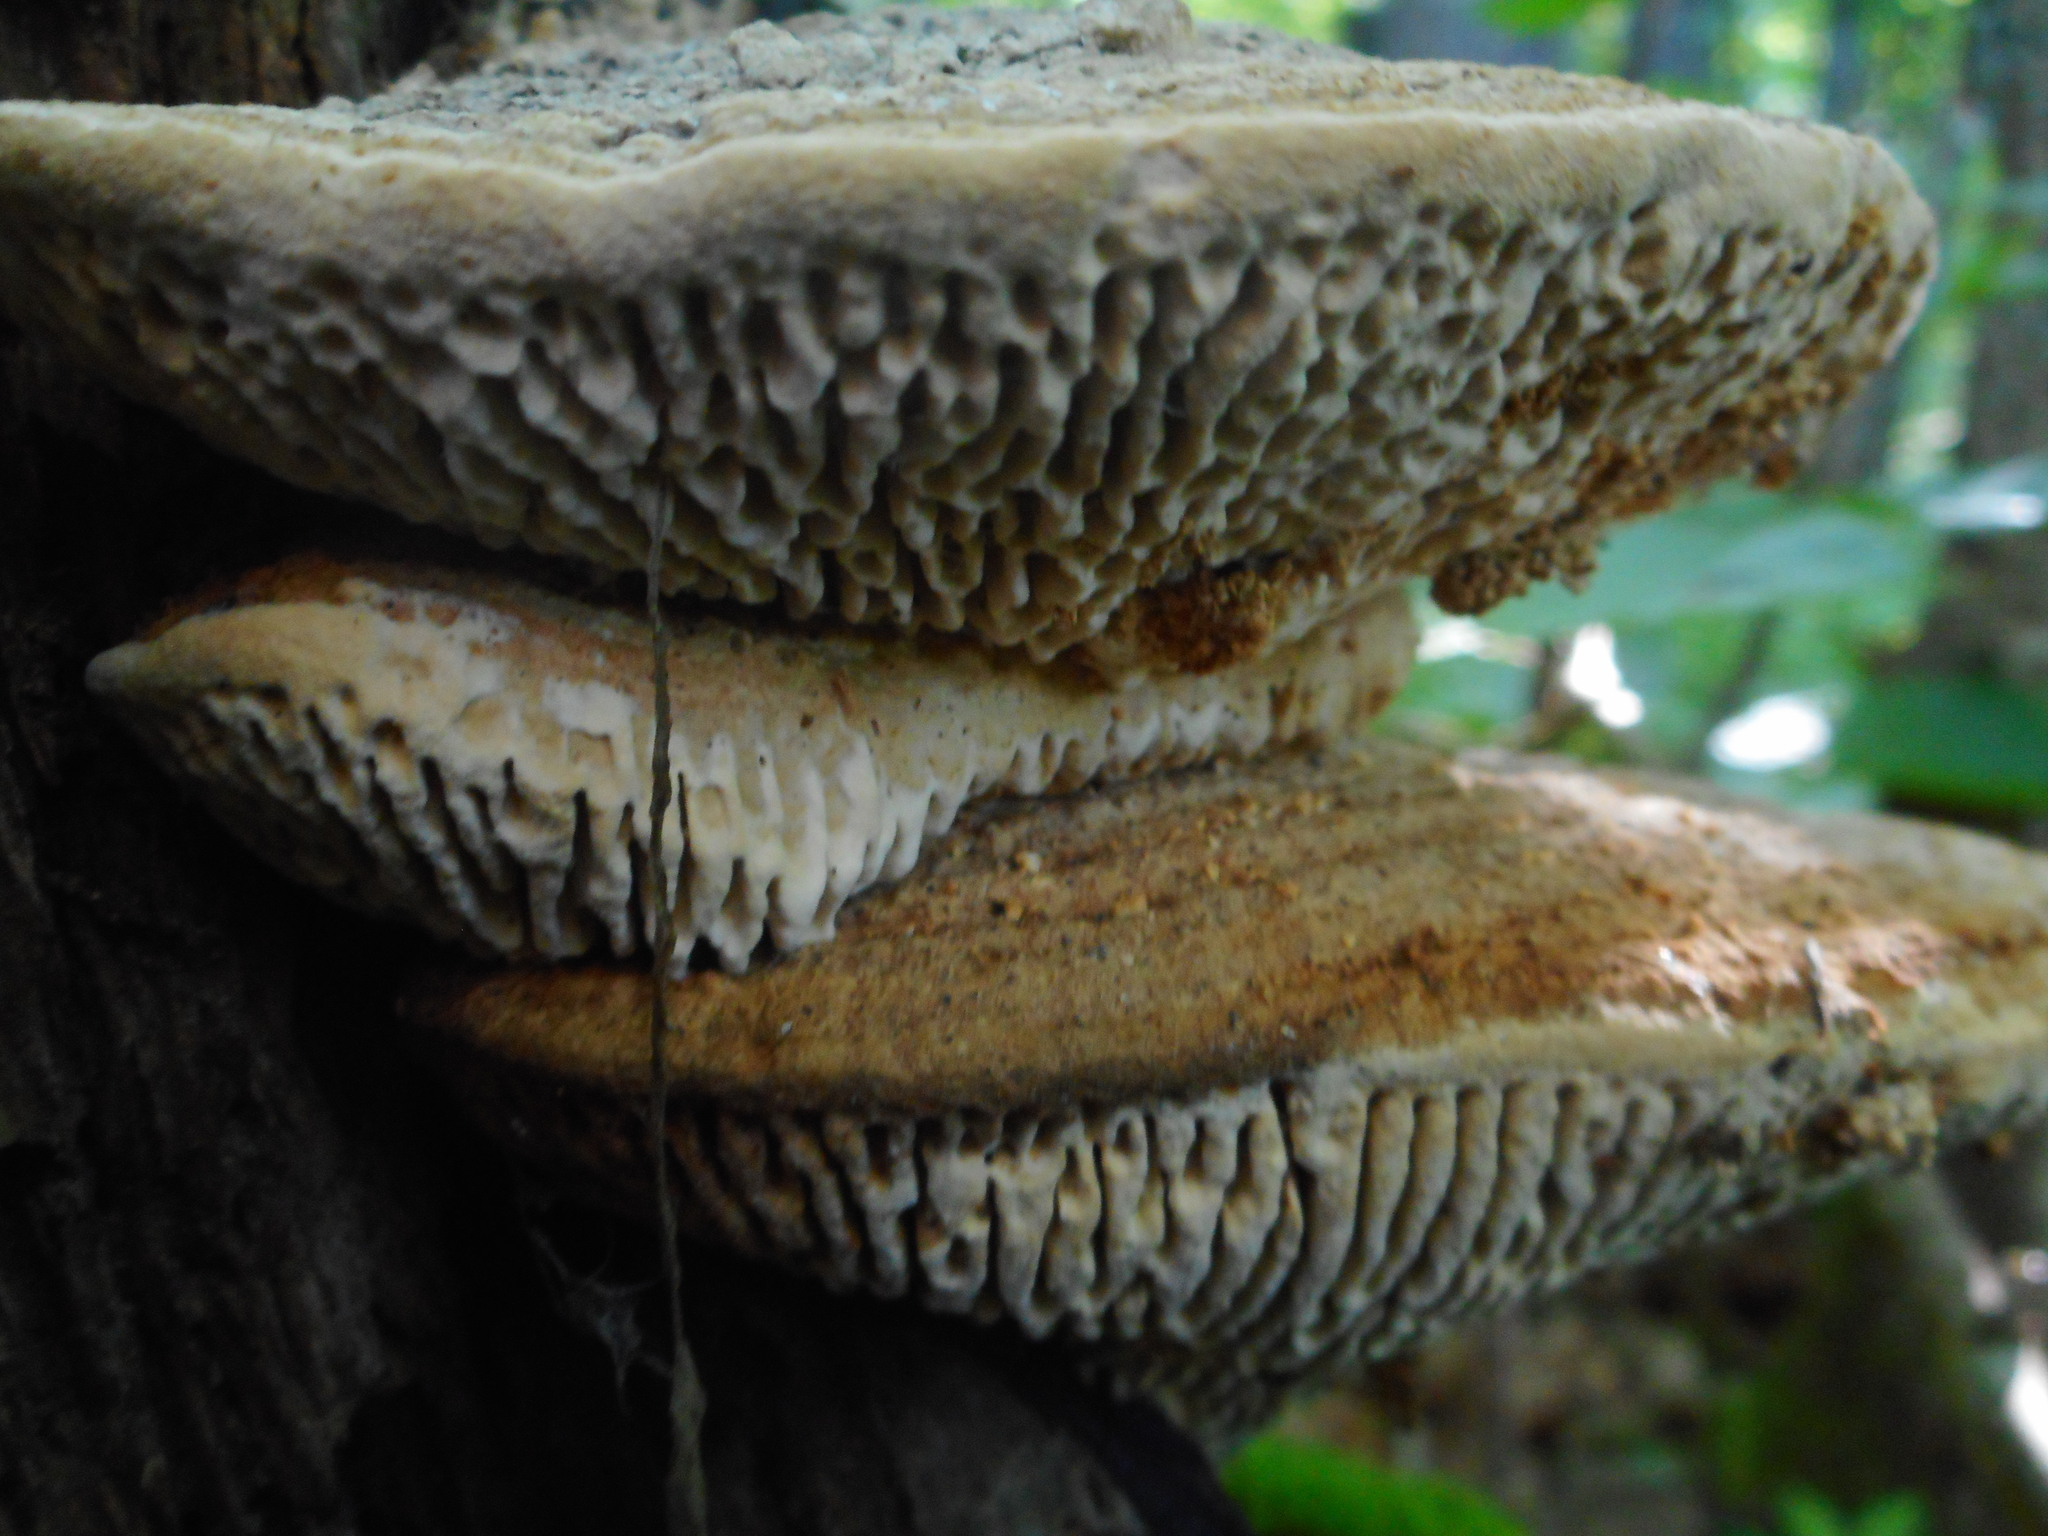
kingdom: Fungi
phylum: Basidiomycota
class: Agaricomycetes
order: Polyporales
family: Fomitopsidaceae
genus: Fomitopsis
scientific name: Fomitopsis
